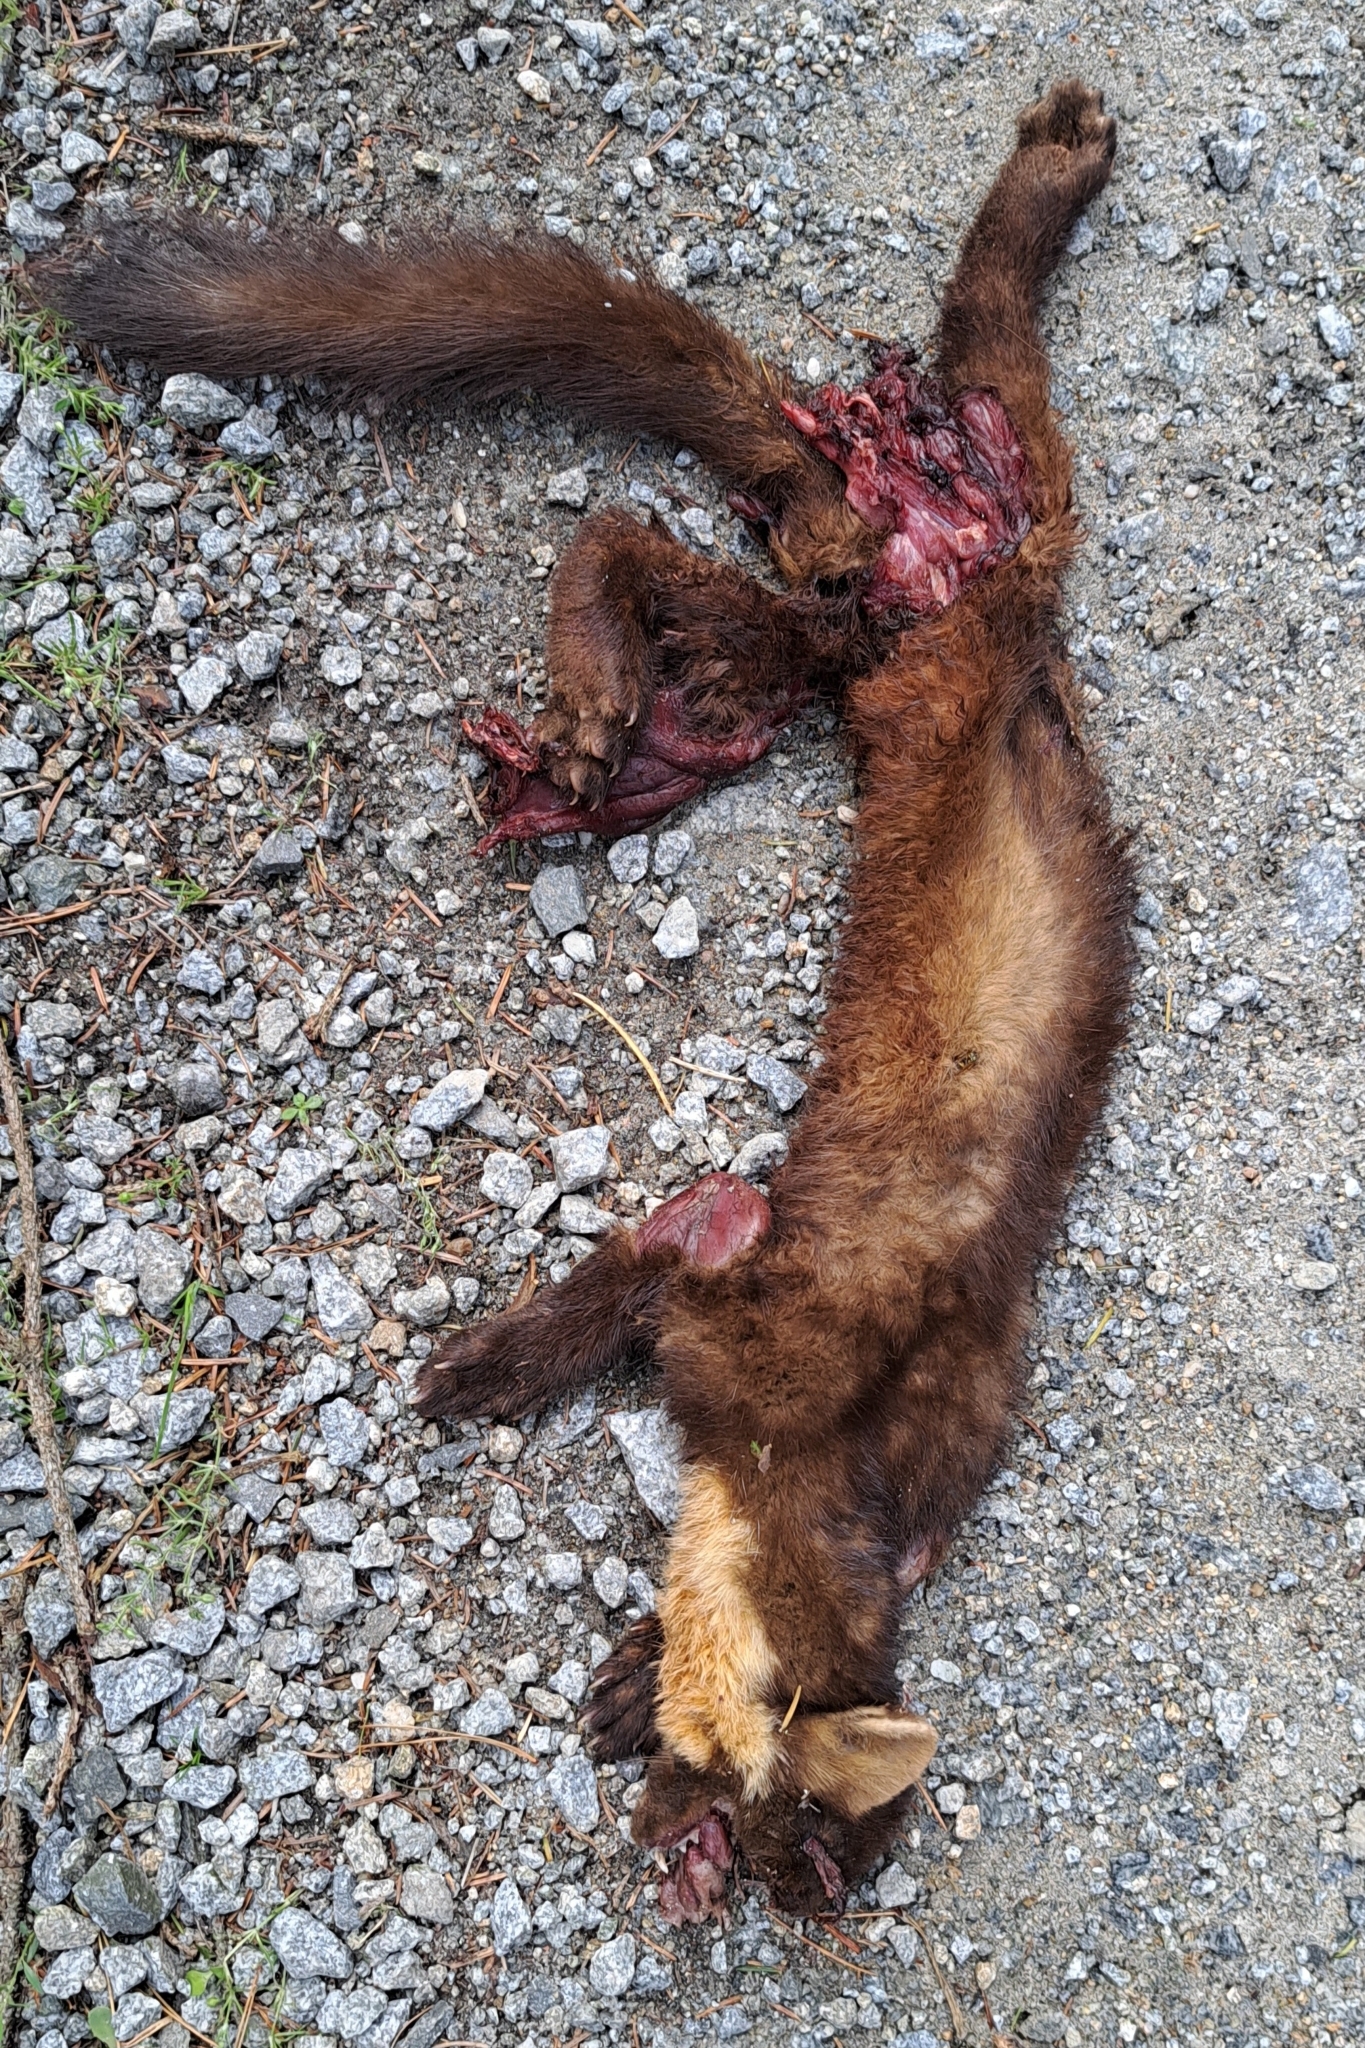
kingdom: Animalia
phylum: Chordata
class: Mammalia
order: Carnivora
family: Mustelidae
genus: Martes
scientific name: Martes martes
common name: European pine marten
